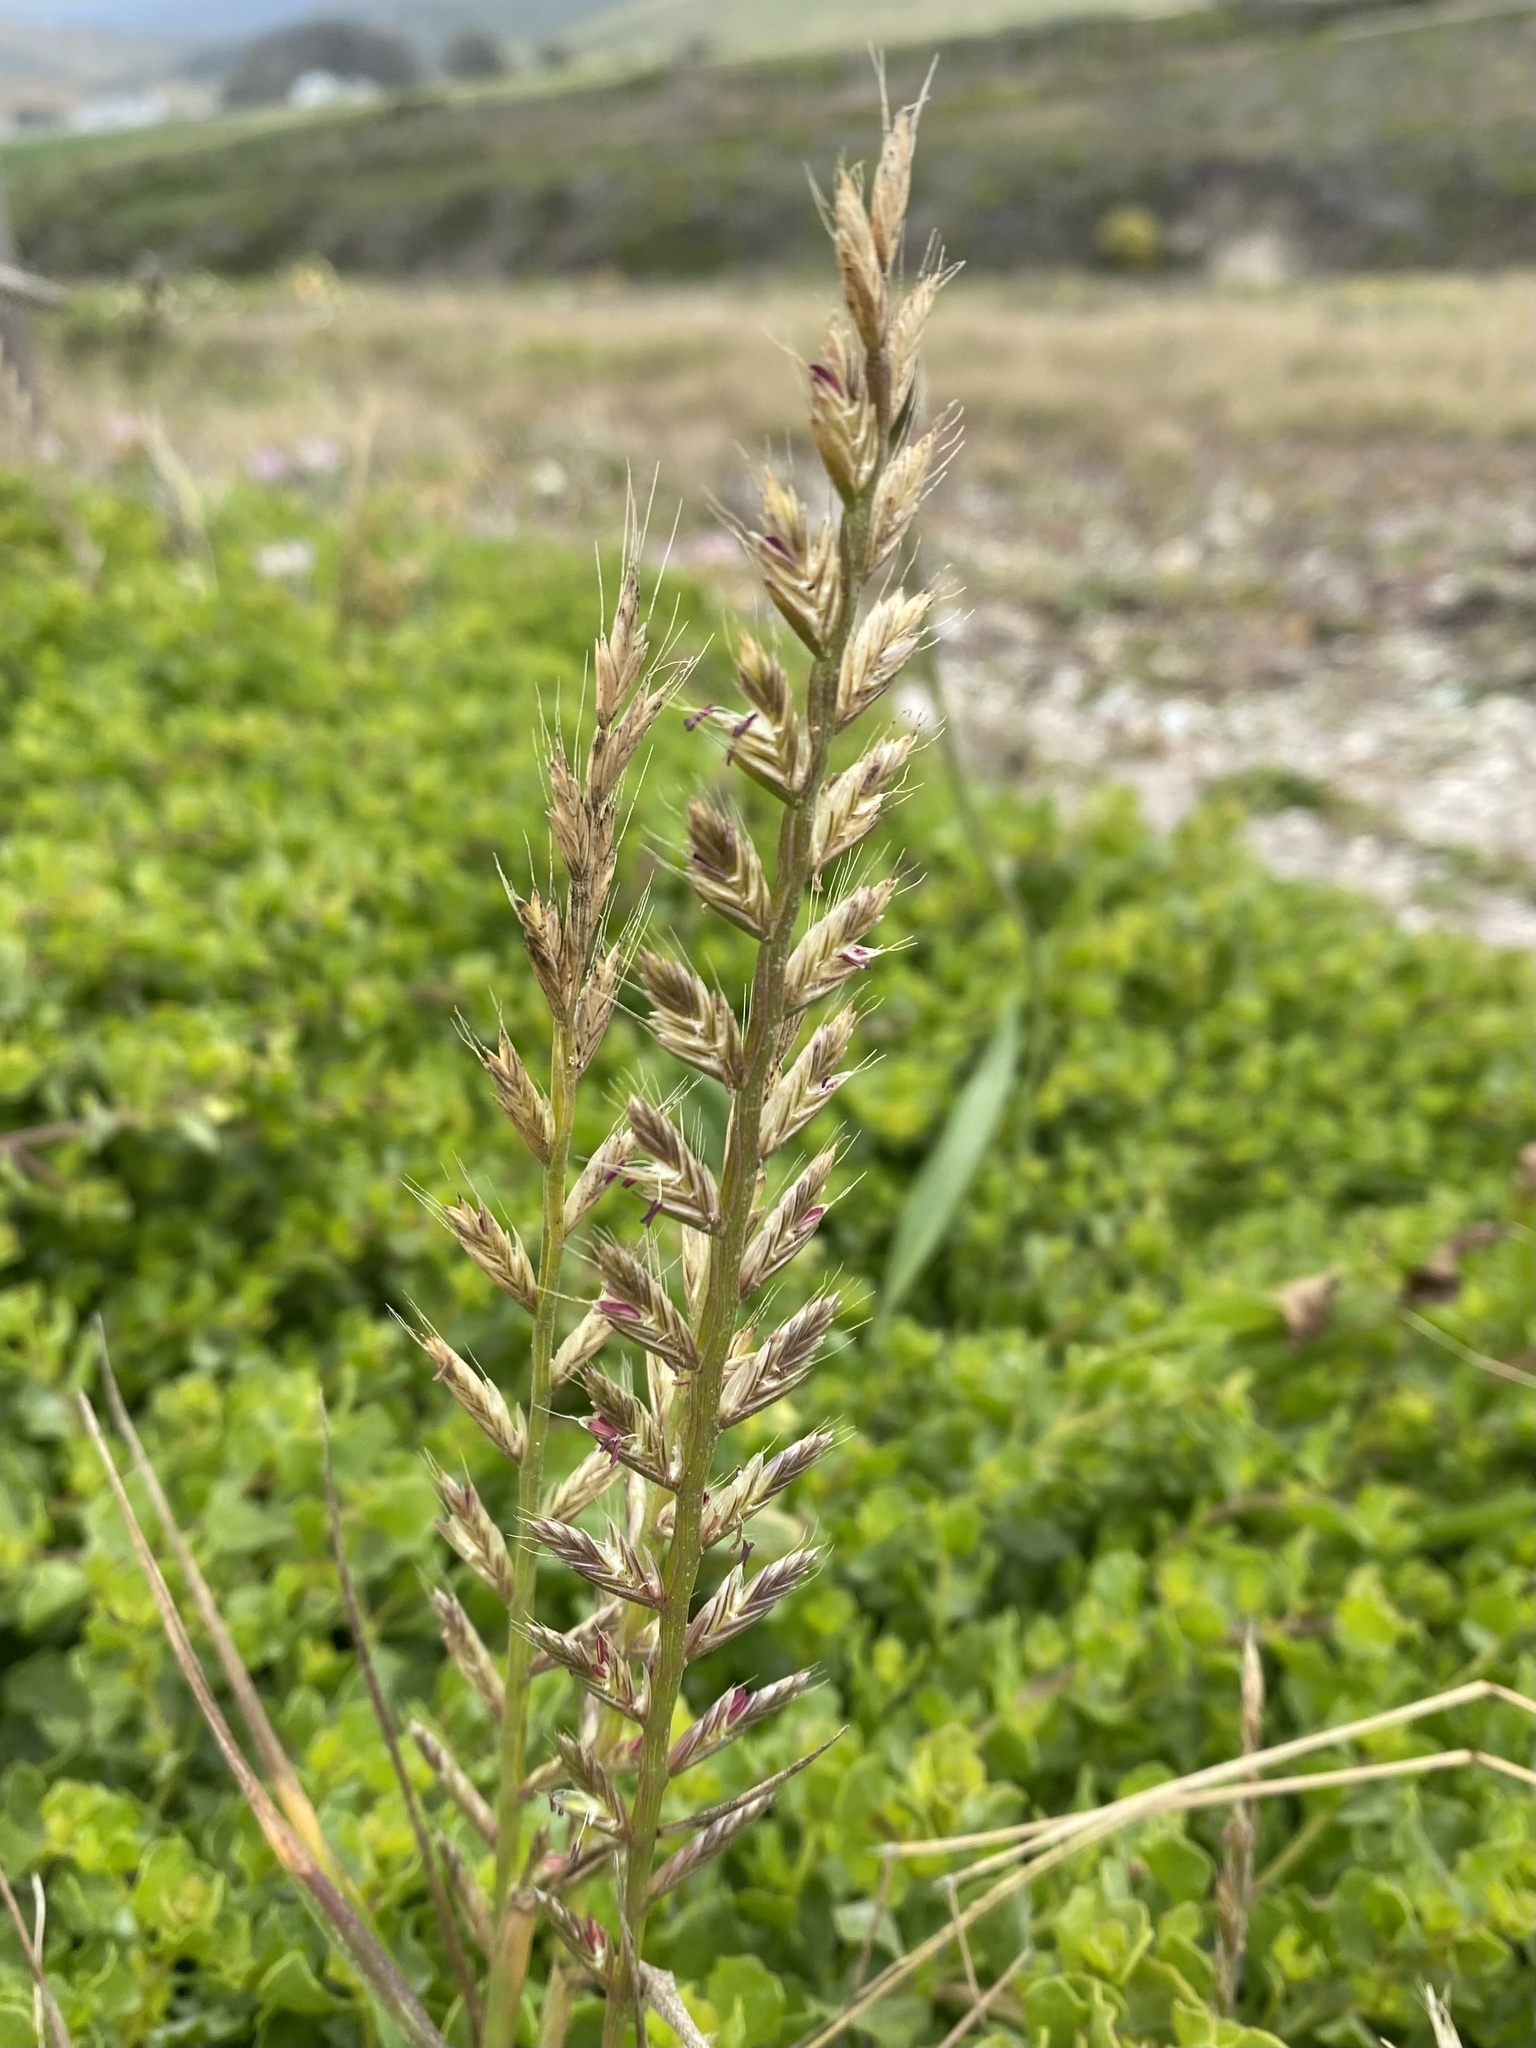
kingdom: Plantae
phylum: Tracheophyta
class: Liliopsida
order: Poales
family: Poaceae
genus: Lolium
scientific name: Lolium perenne
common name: Perennial ryegrass
